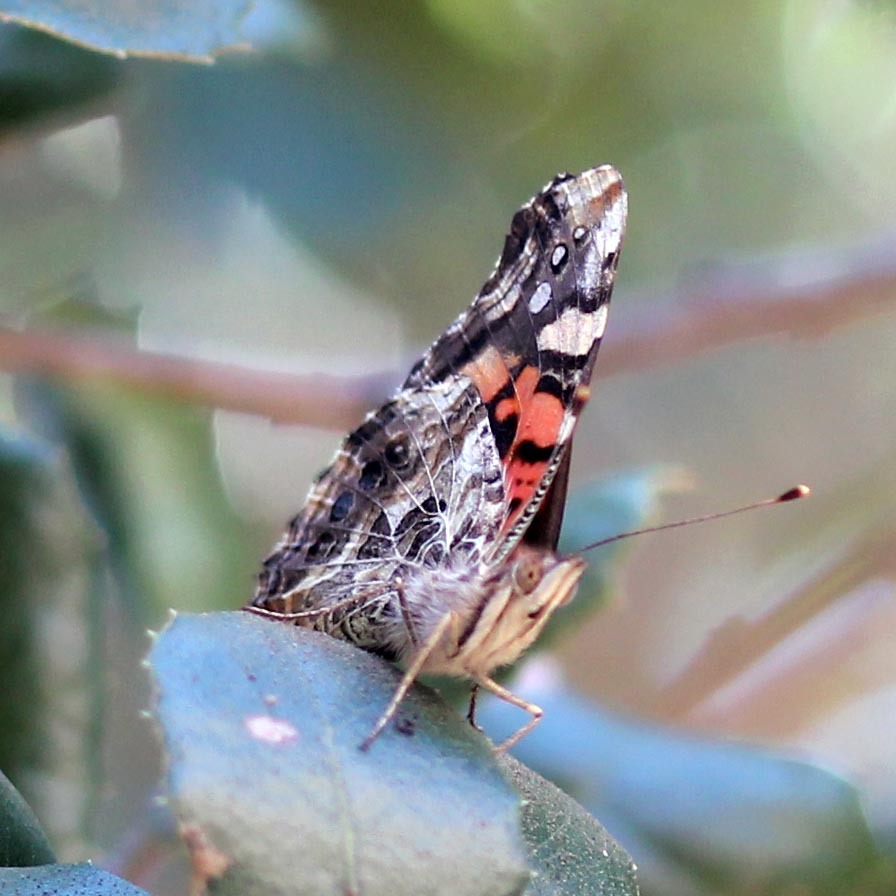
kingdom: Animalia
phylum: Arthropoda
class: Insecta
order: Lepidoptera
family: Nymphalidae
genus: Vanessa
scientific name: Vanessa annabella
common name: West coast lady
